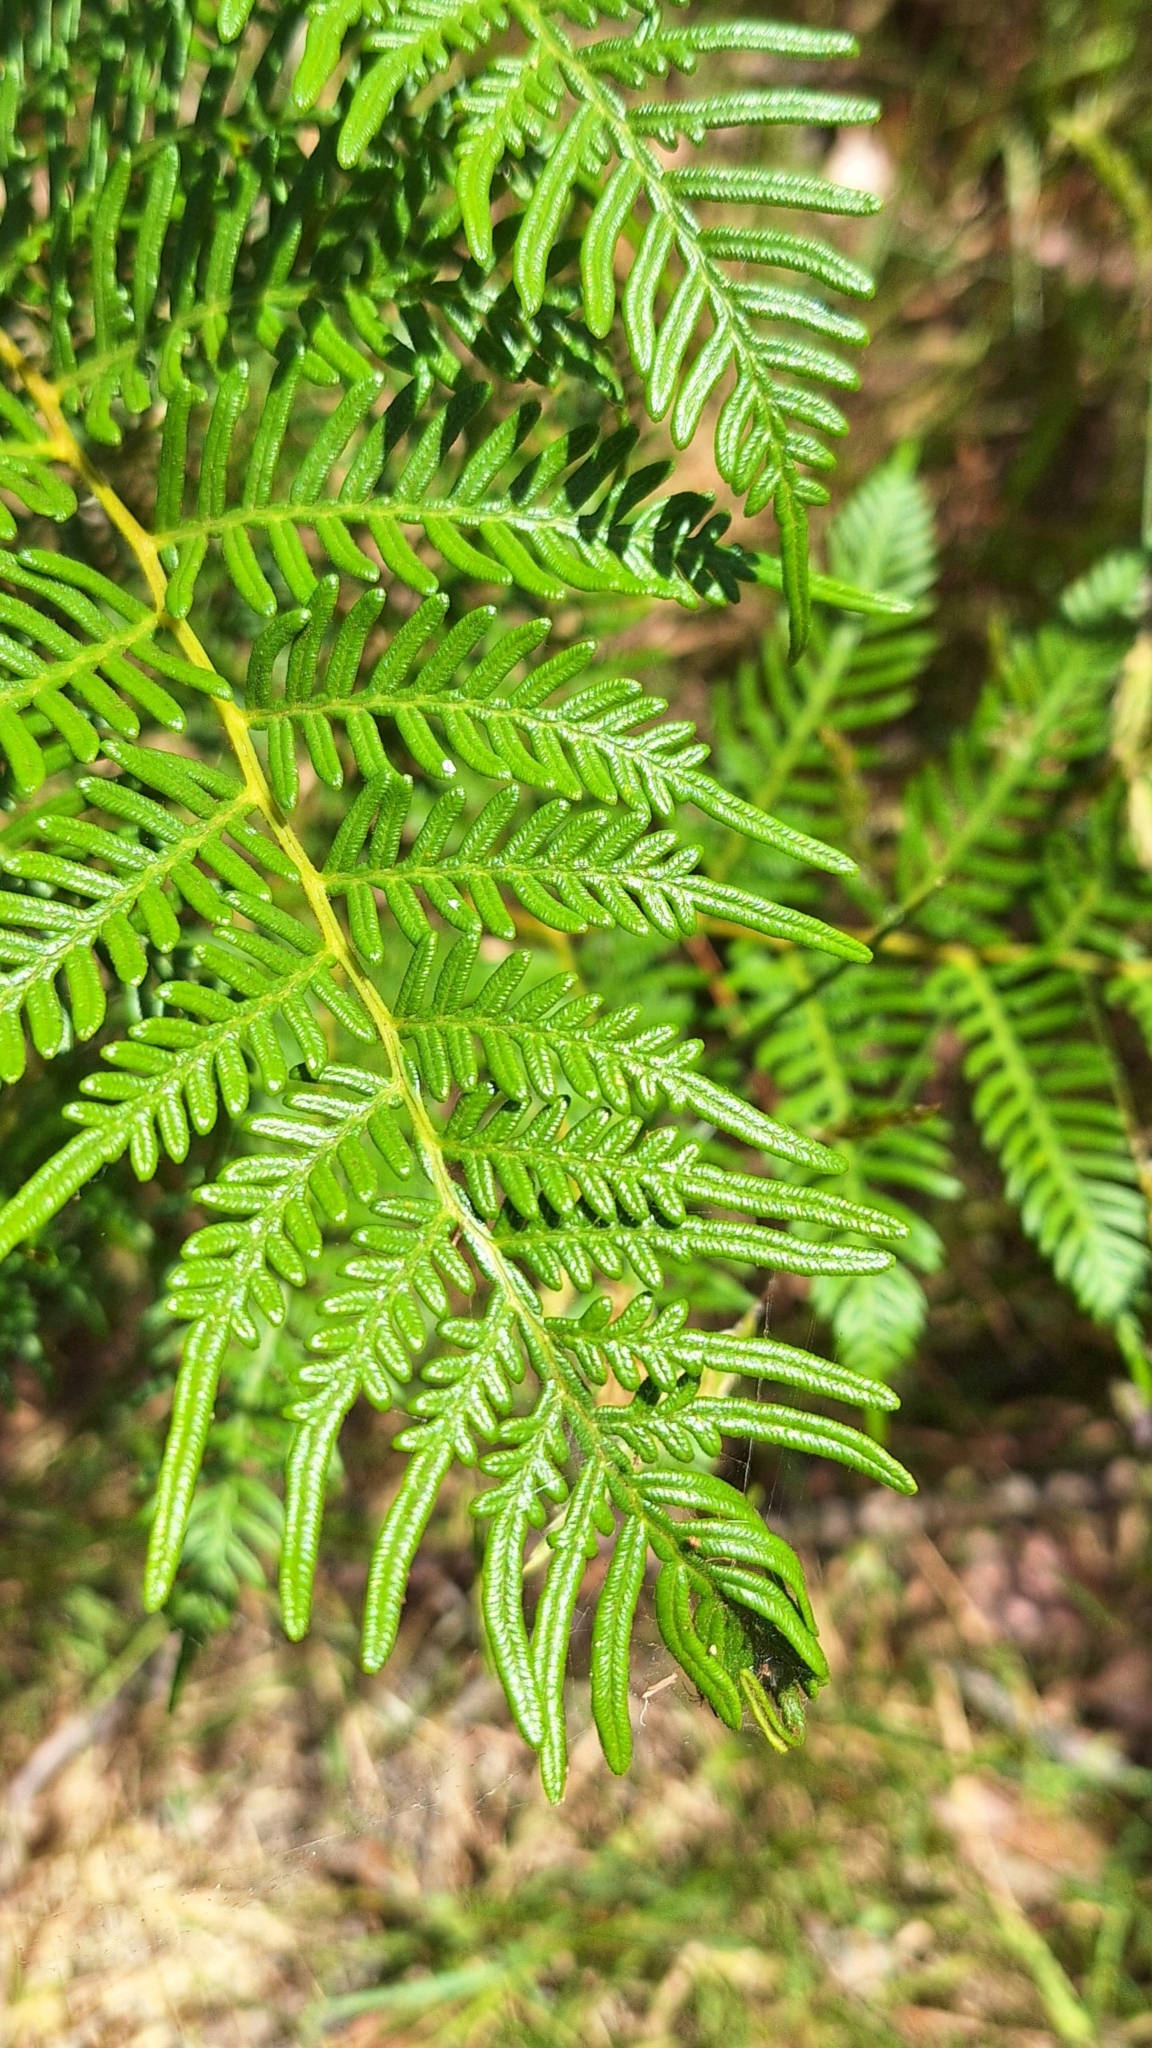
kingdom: Plantae
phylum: Tracheophyta
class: Polypodiopsida
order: Polypodiales
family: Dennstaedtiaceae
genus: Pteridium
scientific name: Pteridium esculentum
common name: Bracken fern
